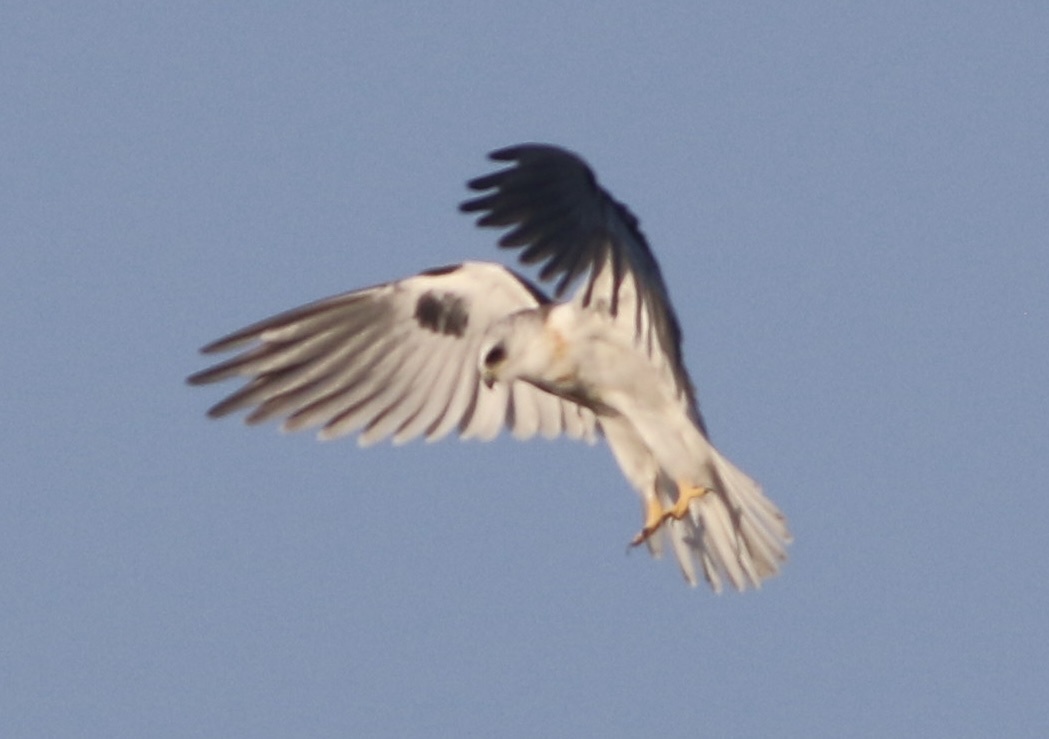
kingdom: Animalia
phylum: Chordata
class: Aves
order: Accipitriformes
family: Accipitridae
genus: Elanus
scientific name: Elanus leucurus
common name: White-tailed kite
